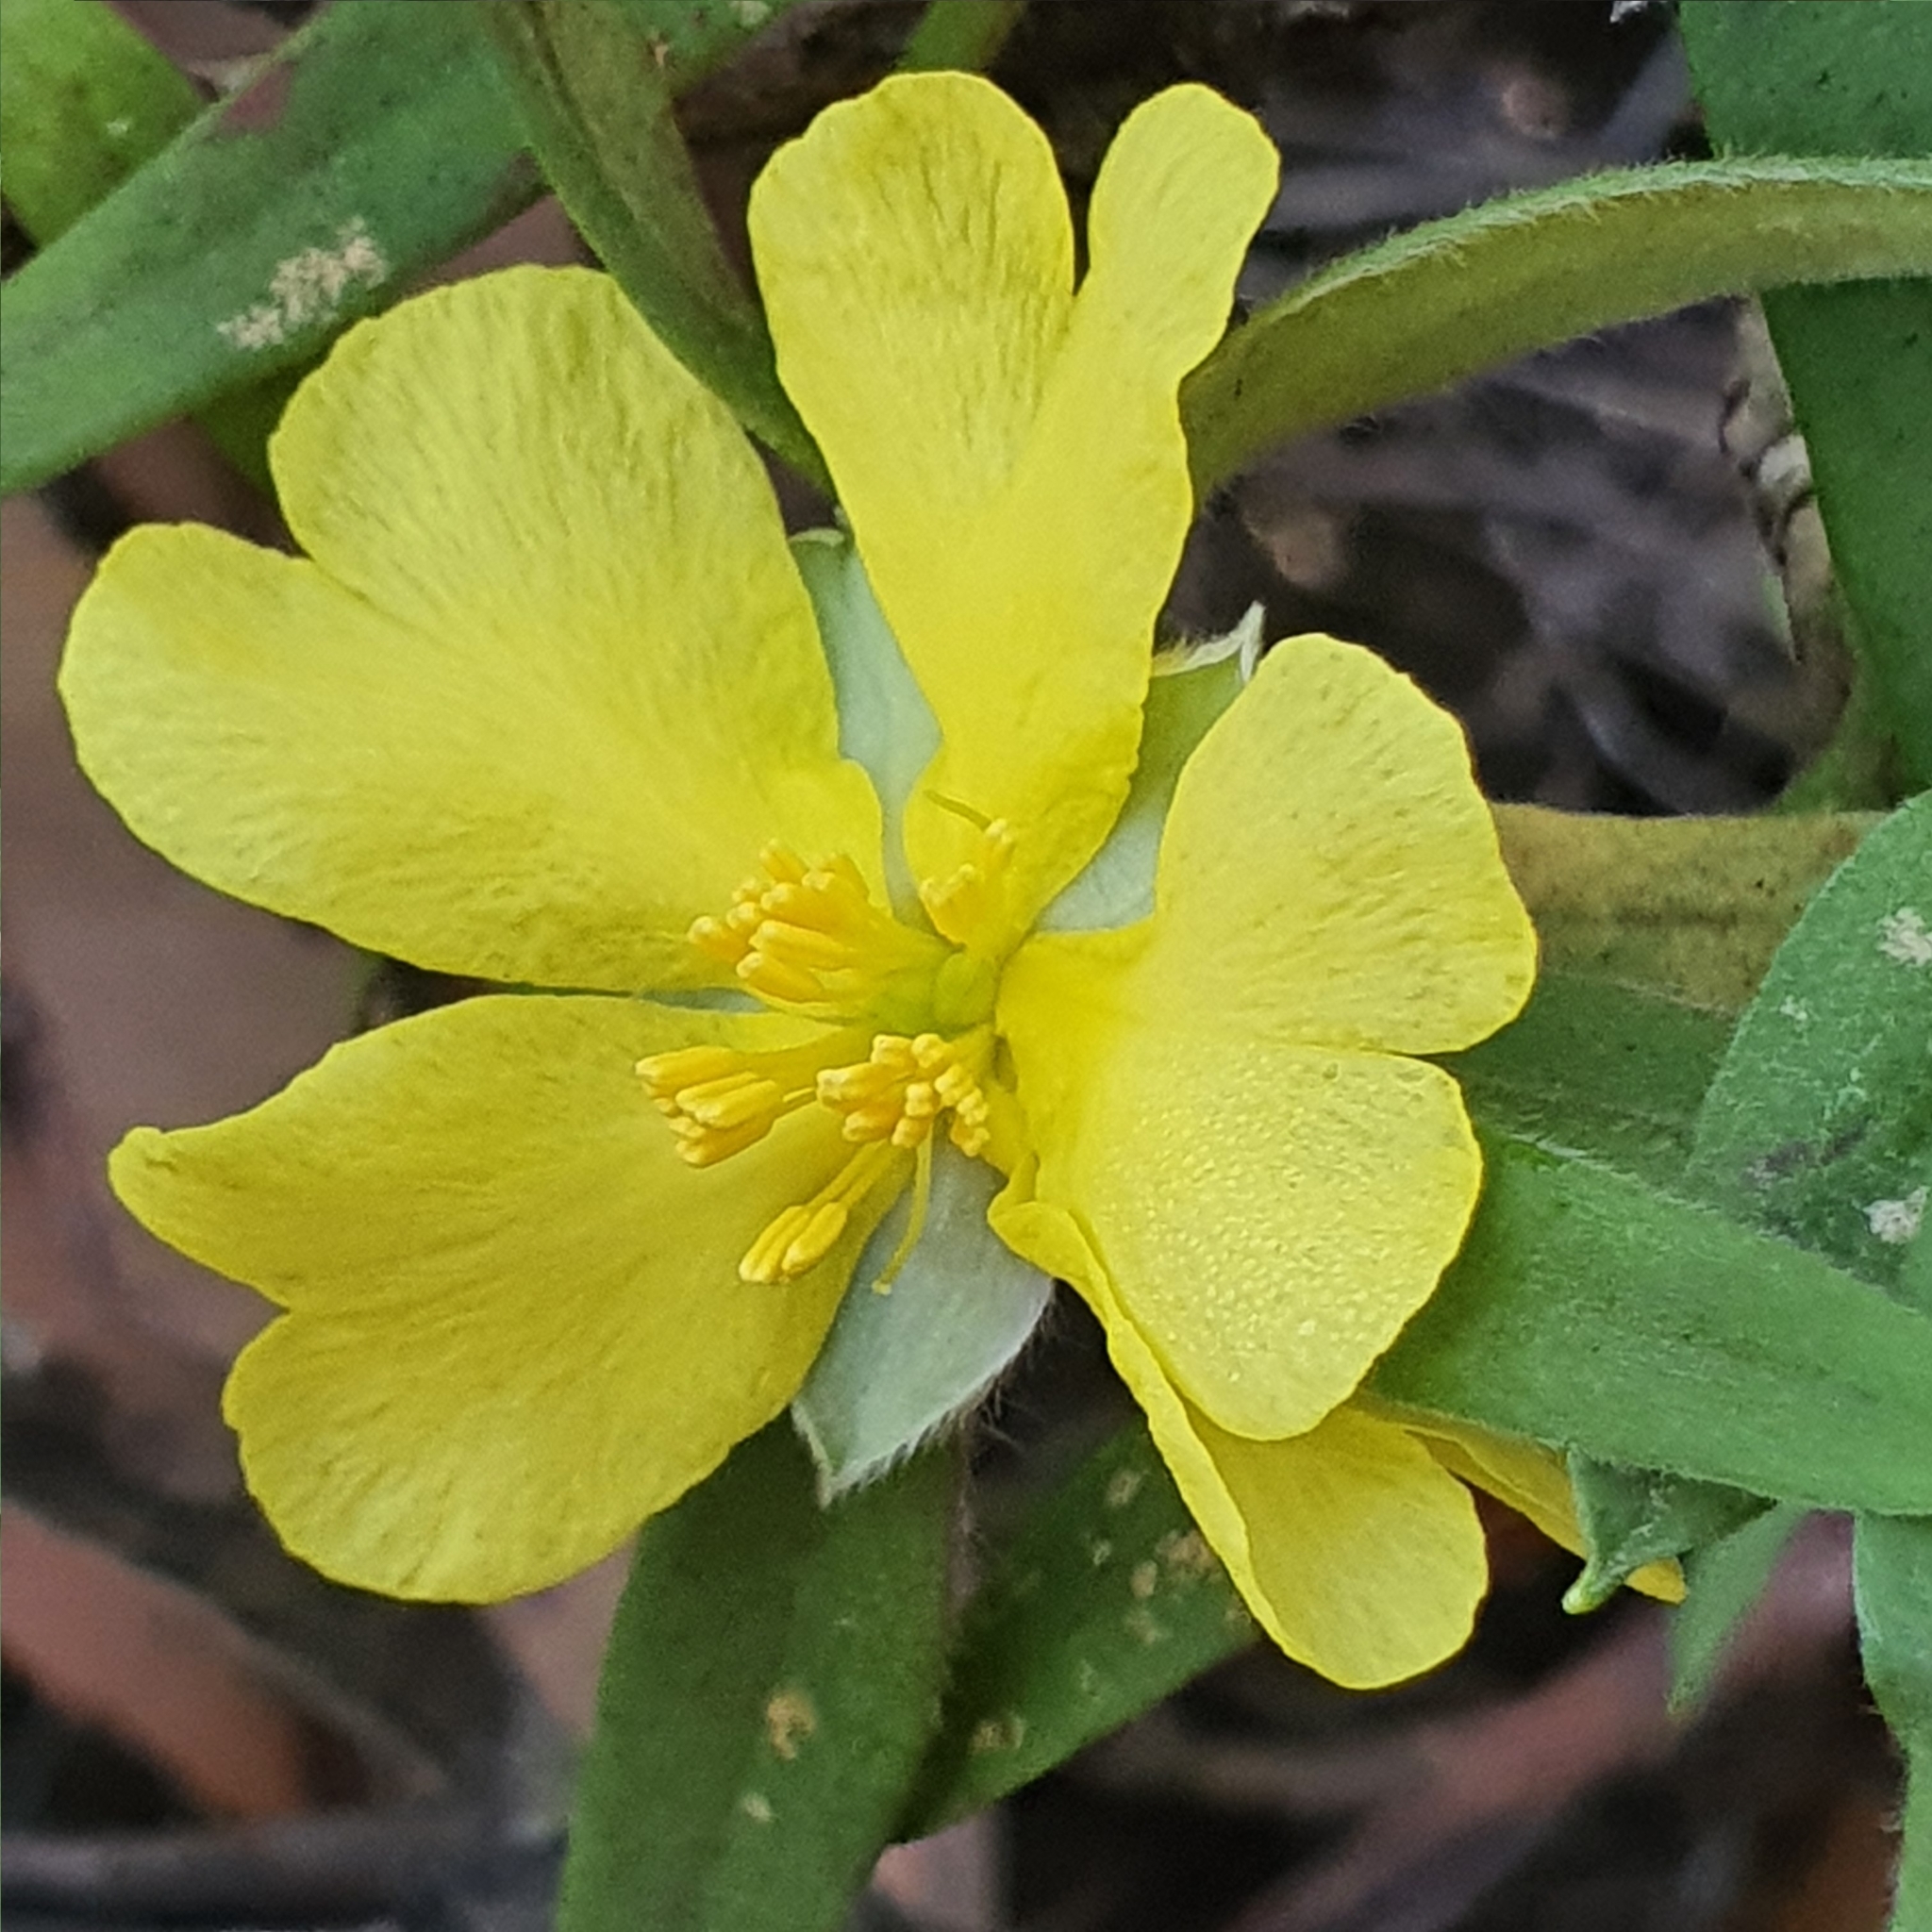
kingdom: Plantae
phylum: Tracheophyta
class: Magnoliopsida
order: Dilleniales
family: Dilleniaceae
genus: Hibbertia
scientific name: Hibbertia saligna
